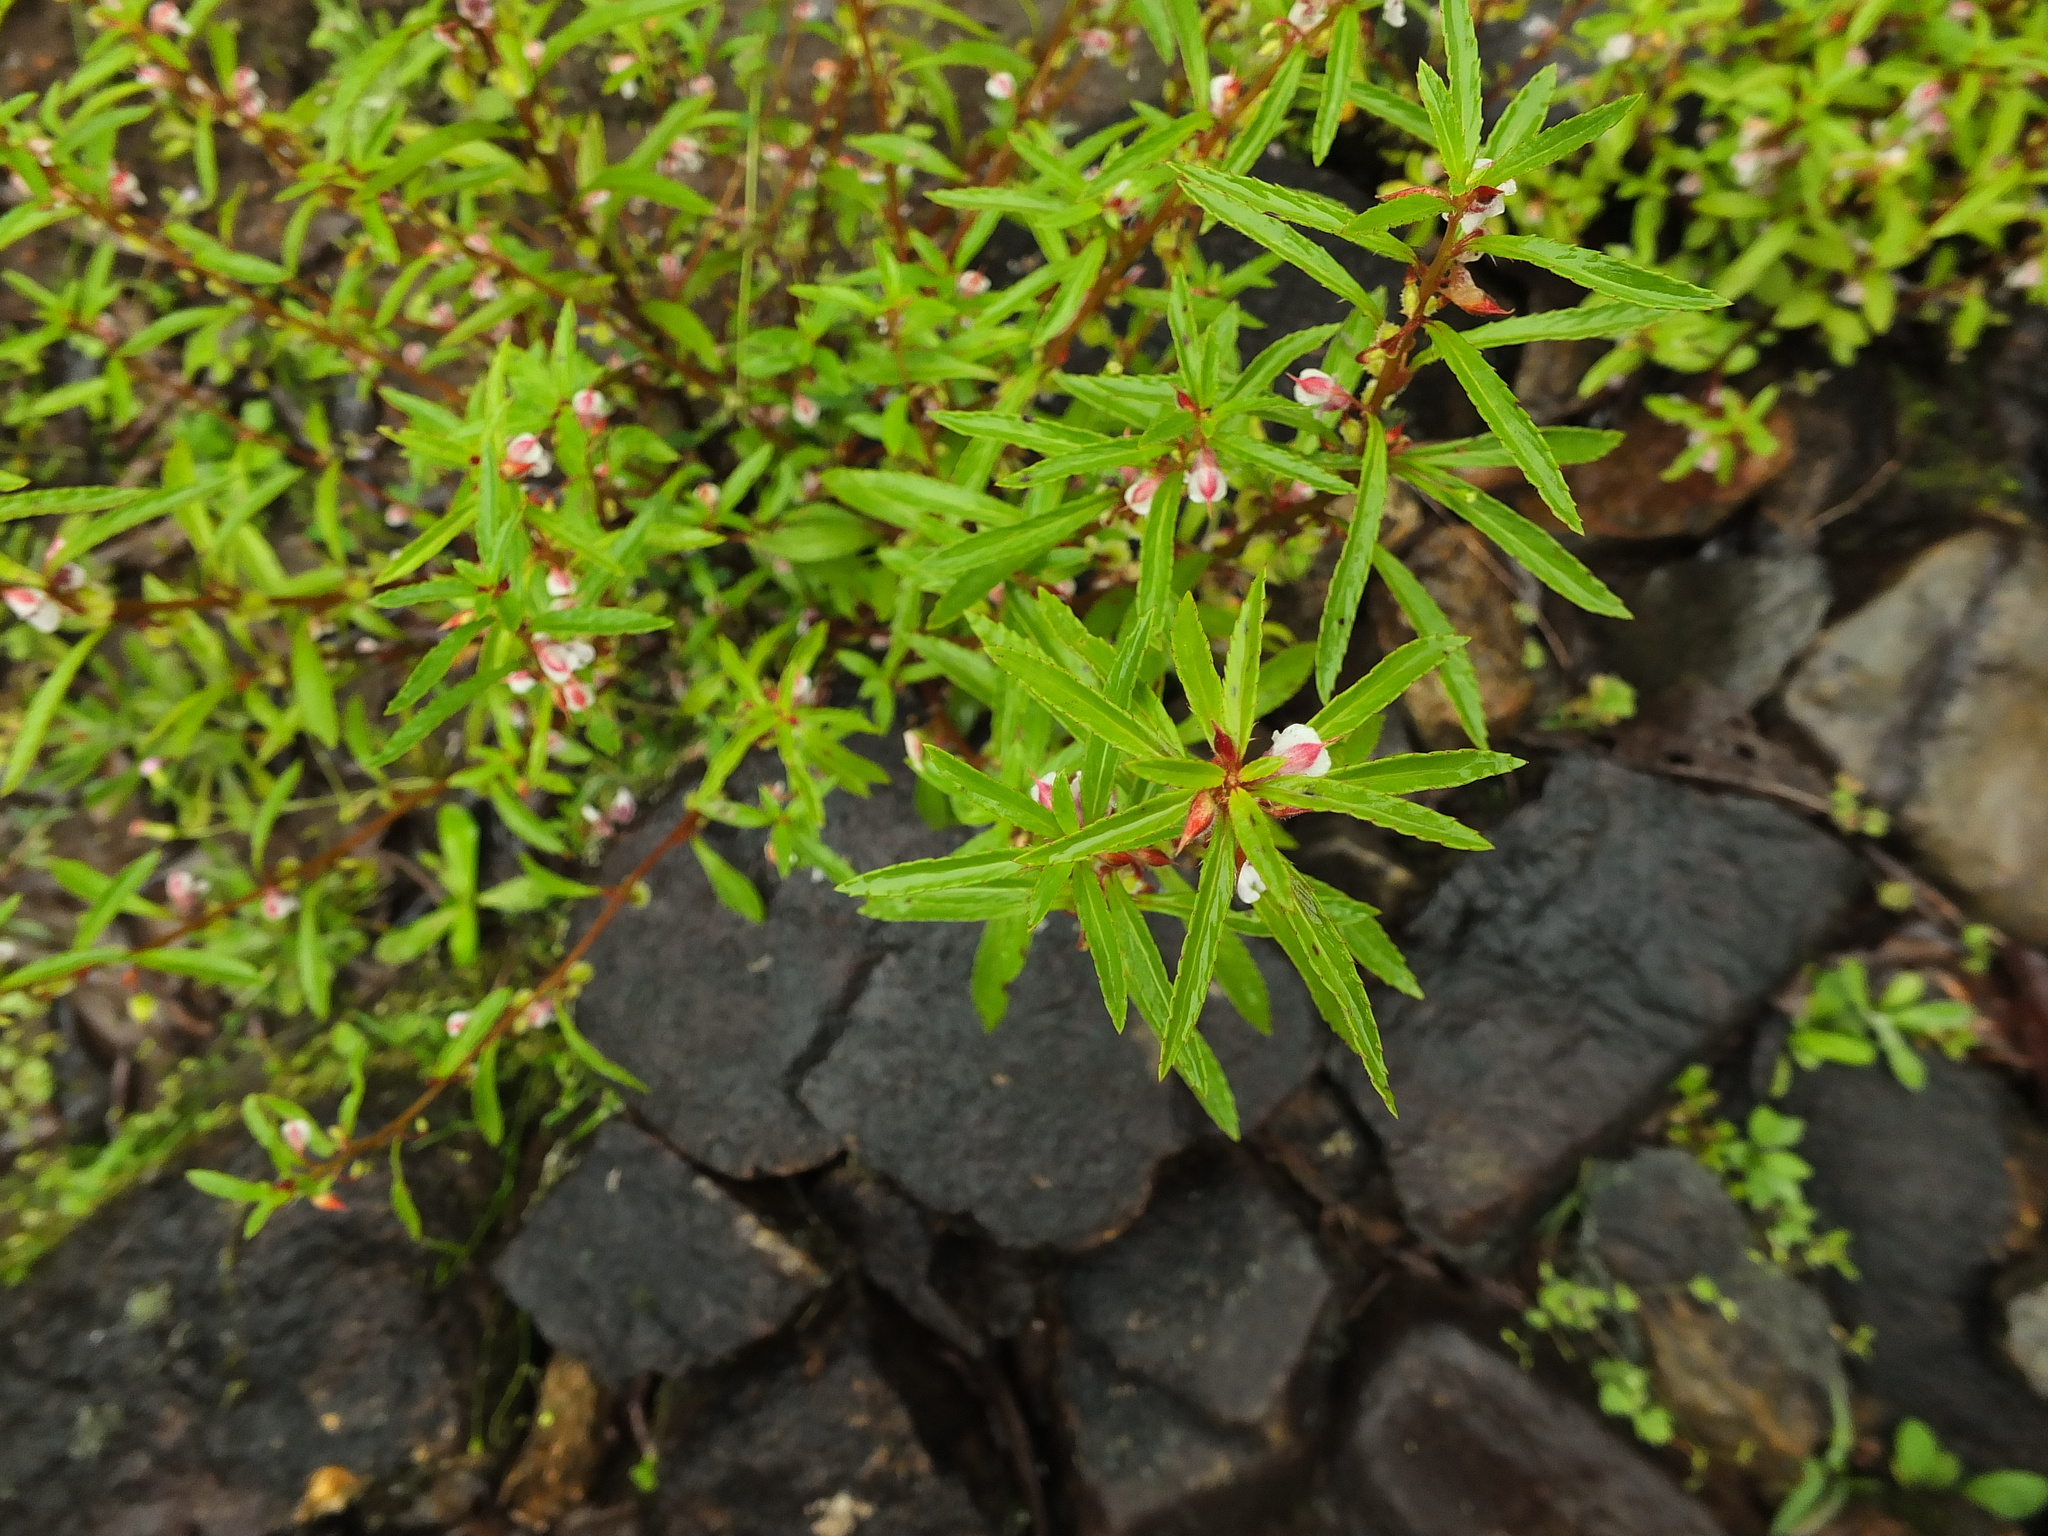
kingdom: Plantae
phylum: Tracheophyta
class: Magnoliopsida
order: Ericales
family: Balsaminaceae
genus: Impatiens
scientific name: Impatiens scabriuscula
